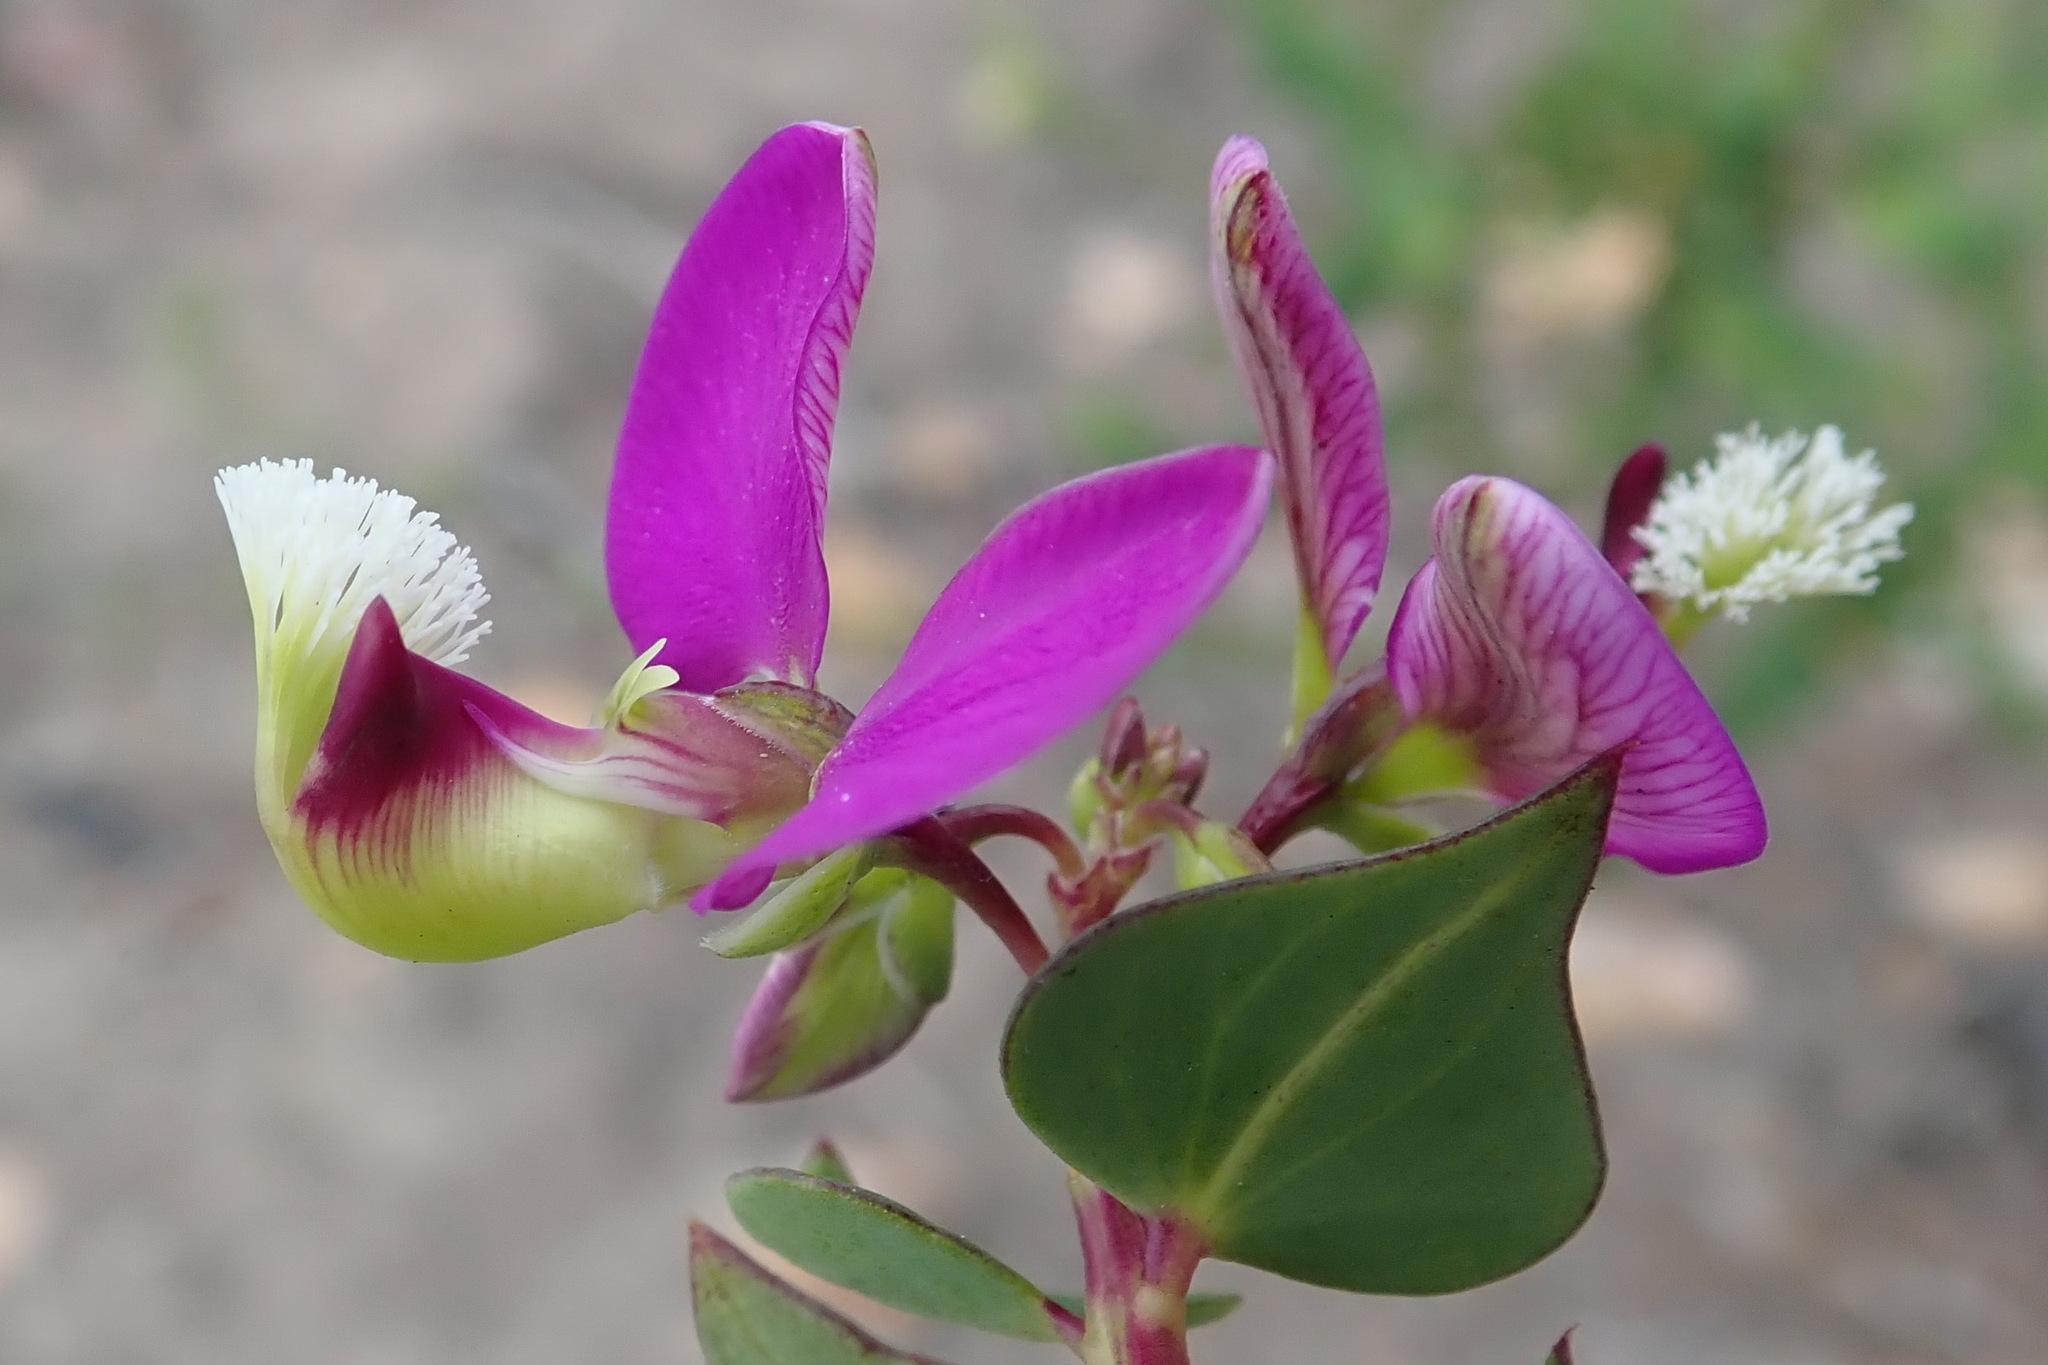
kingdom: Plantae
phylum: Tracheophyta
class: Magnoliopsida
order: Fabales
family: Polygalaceae
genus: Polygala
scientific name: Polygala fruticosa
